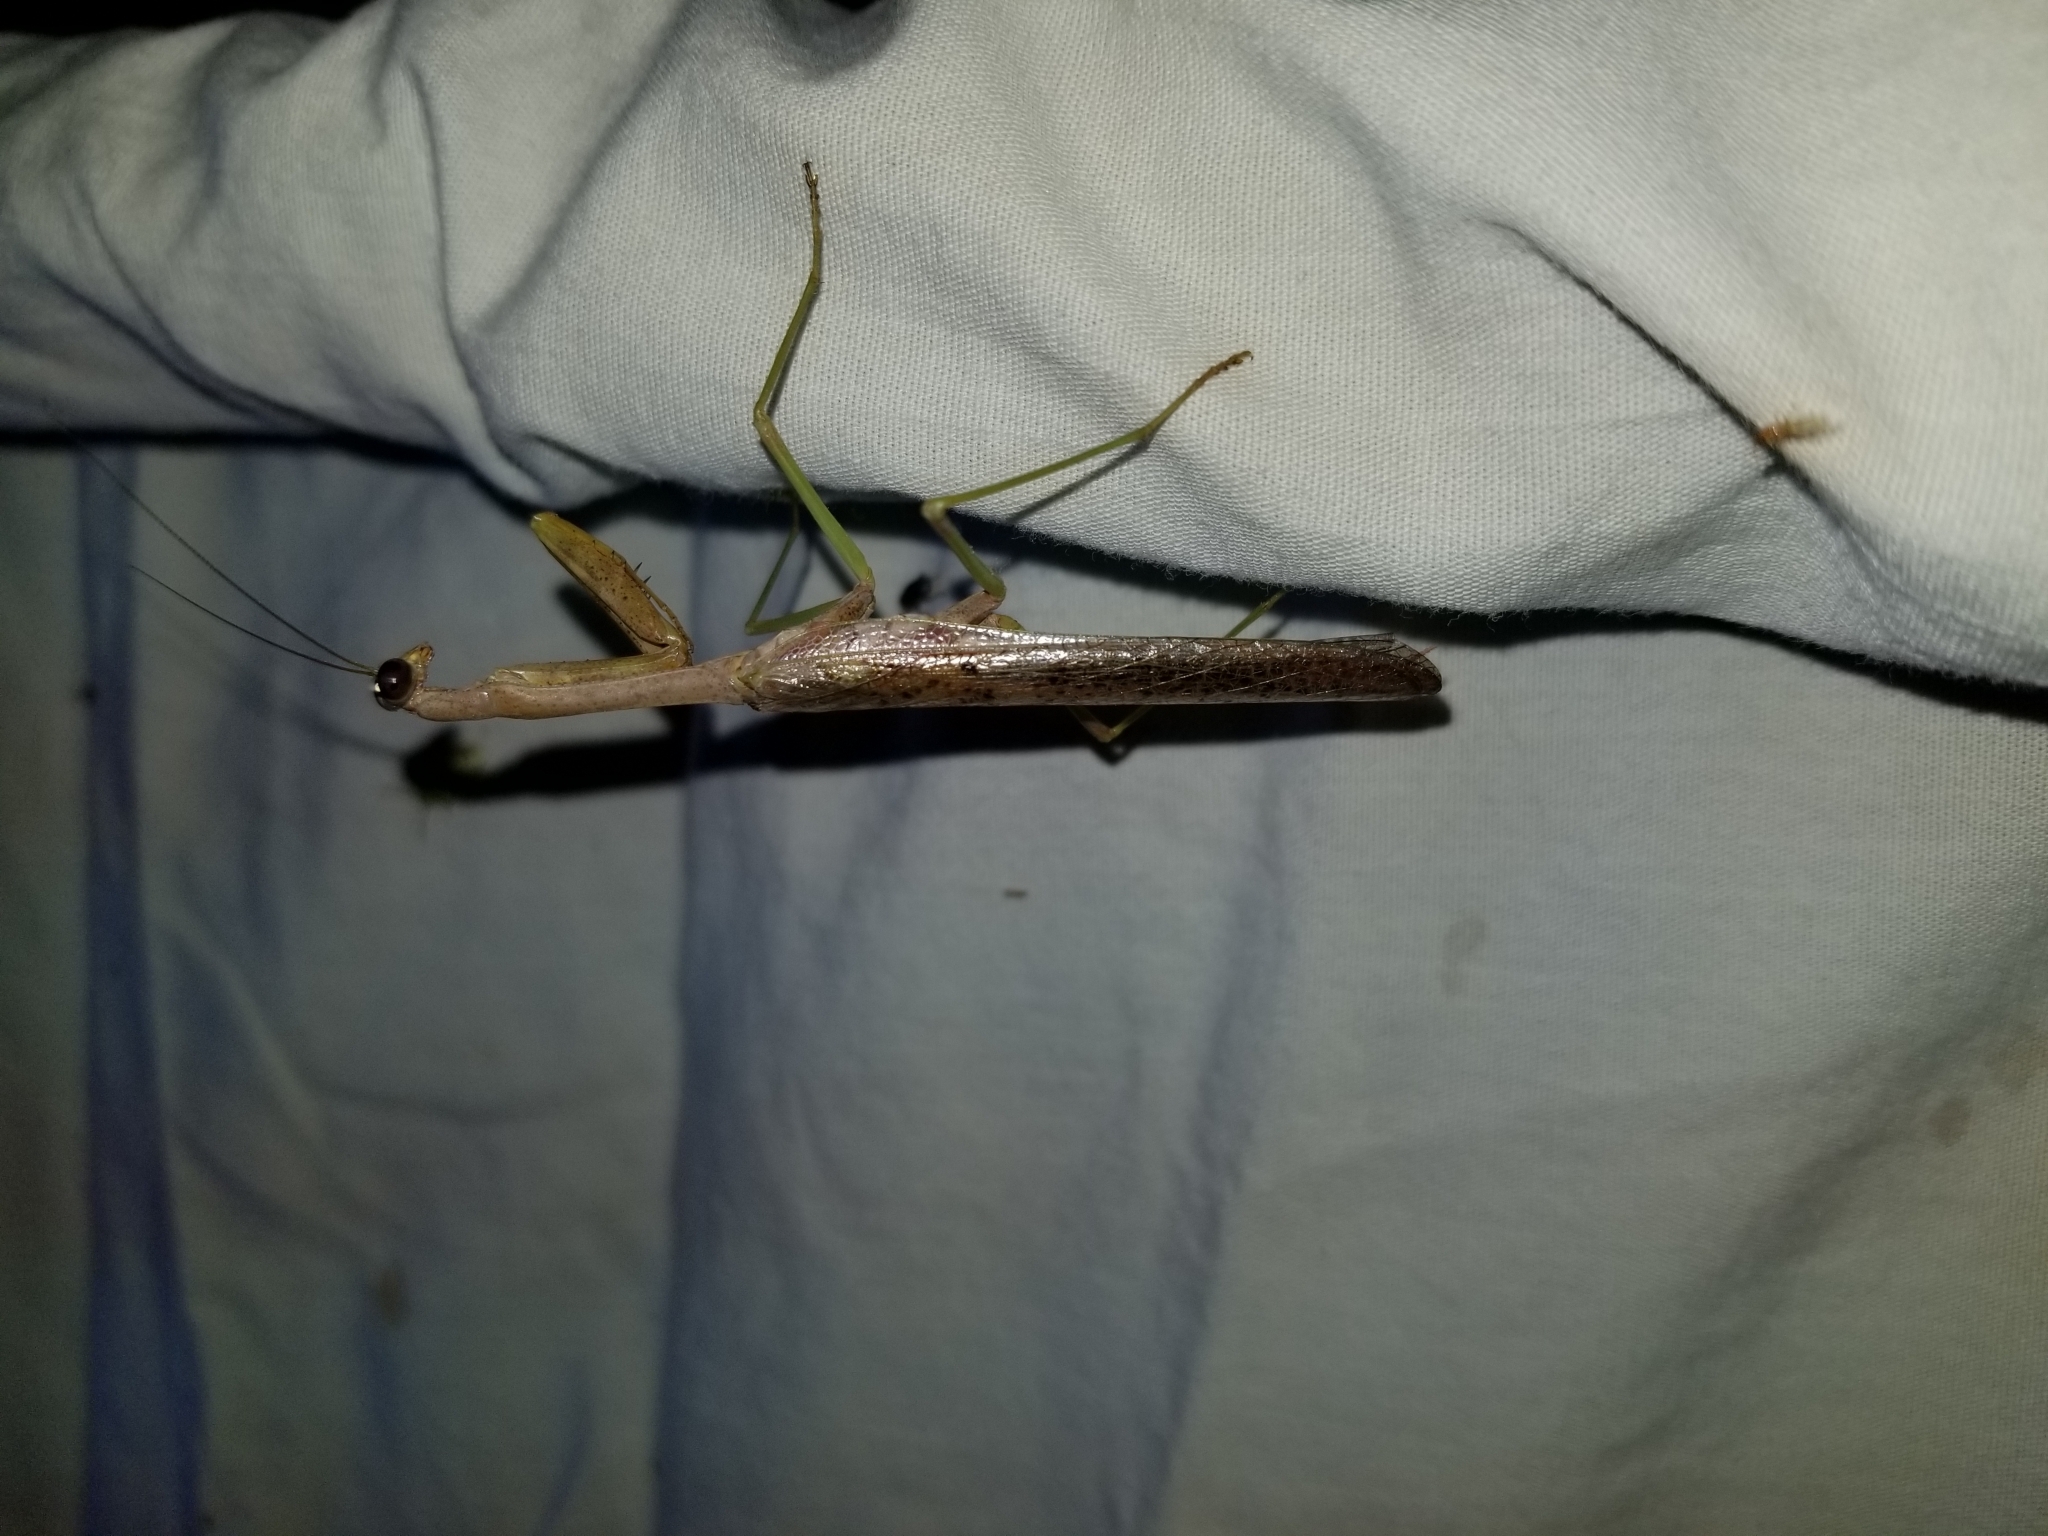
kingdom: Animalia
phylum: Arthropoda
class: Insecta
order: Mantodea
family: Mantidae
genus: Stagmomantis
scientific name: Stagmomantis carolina
